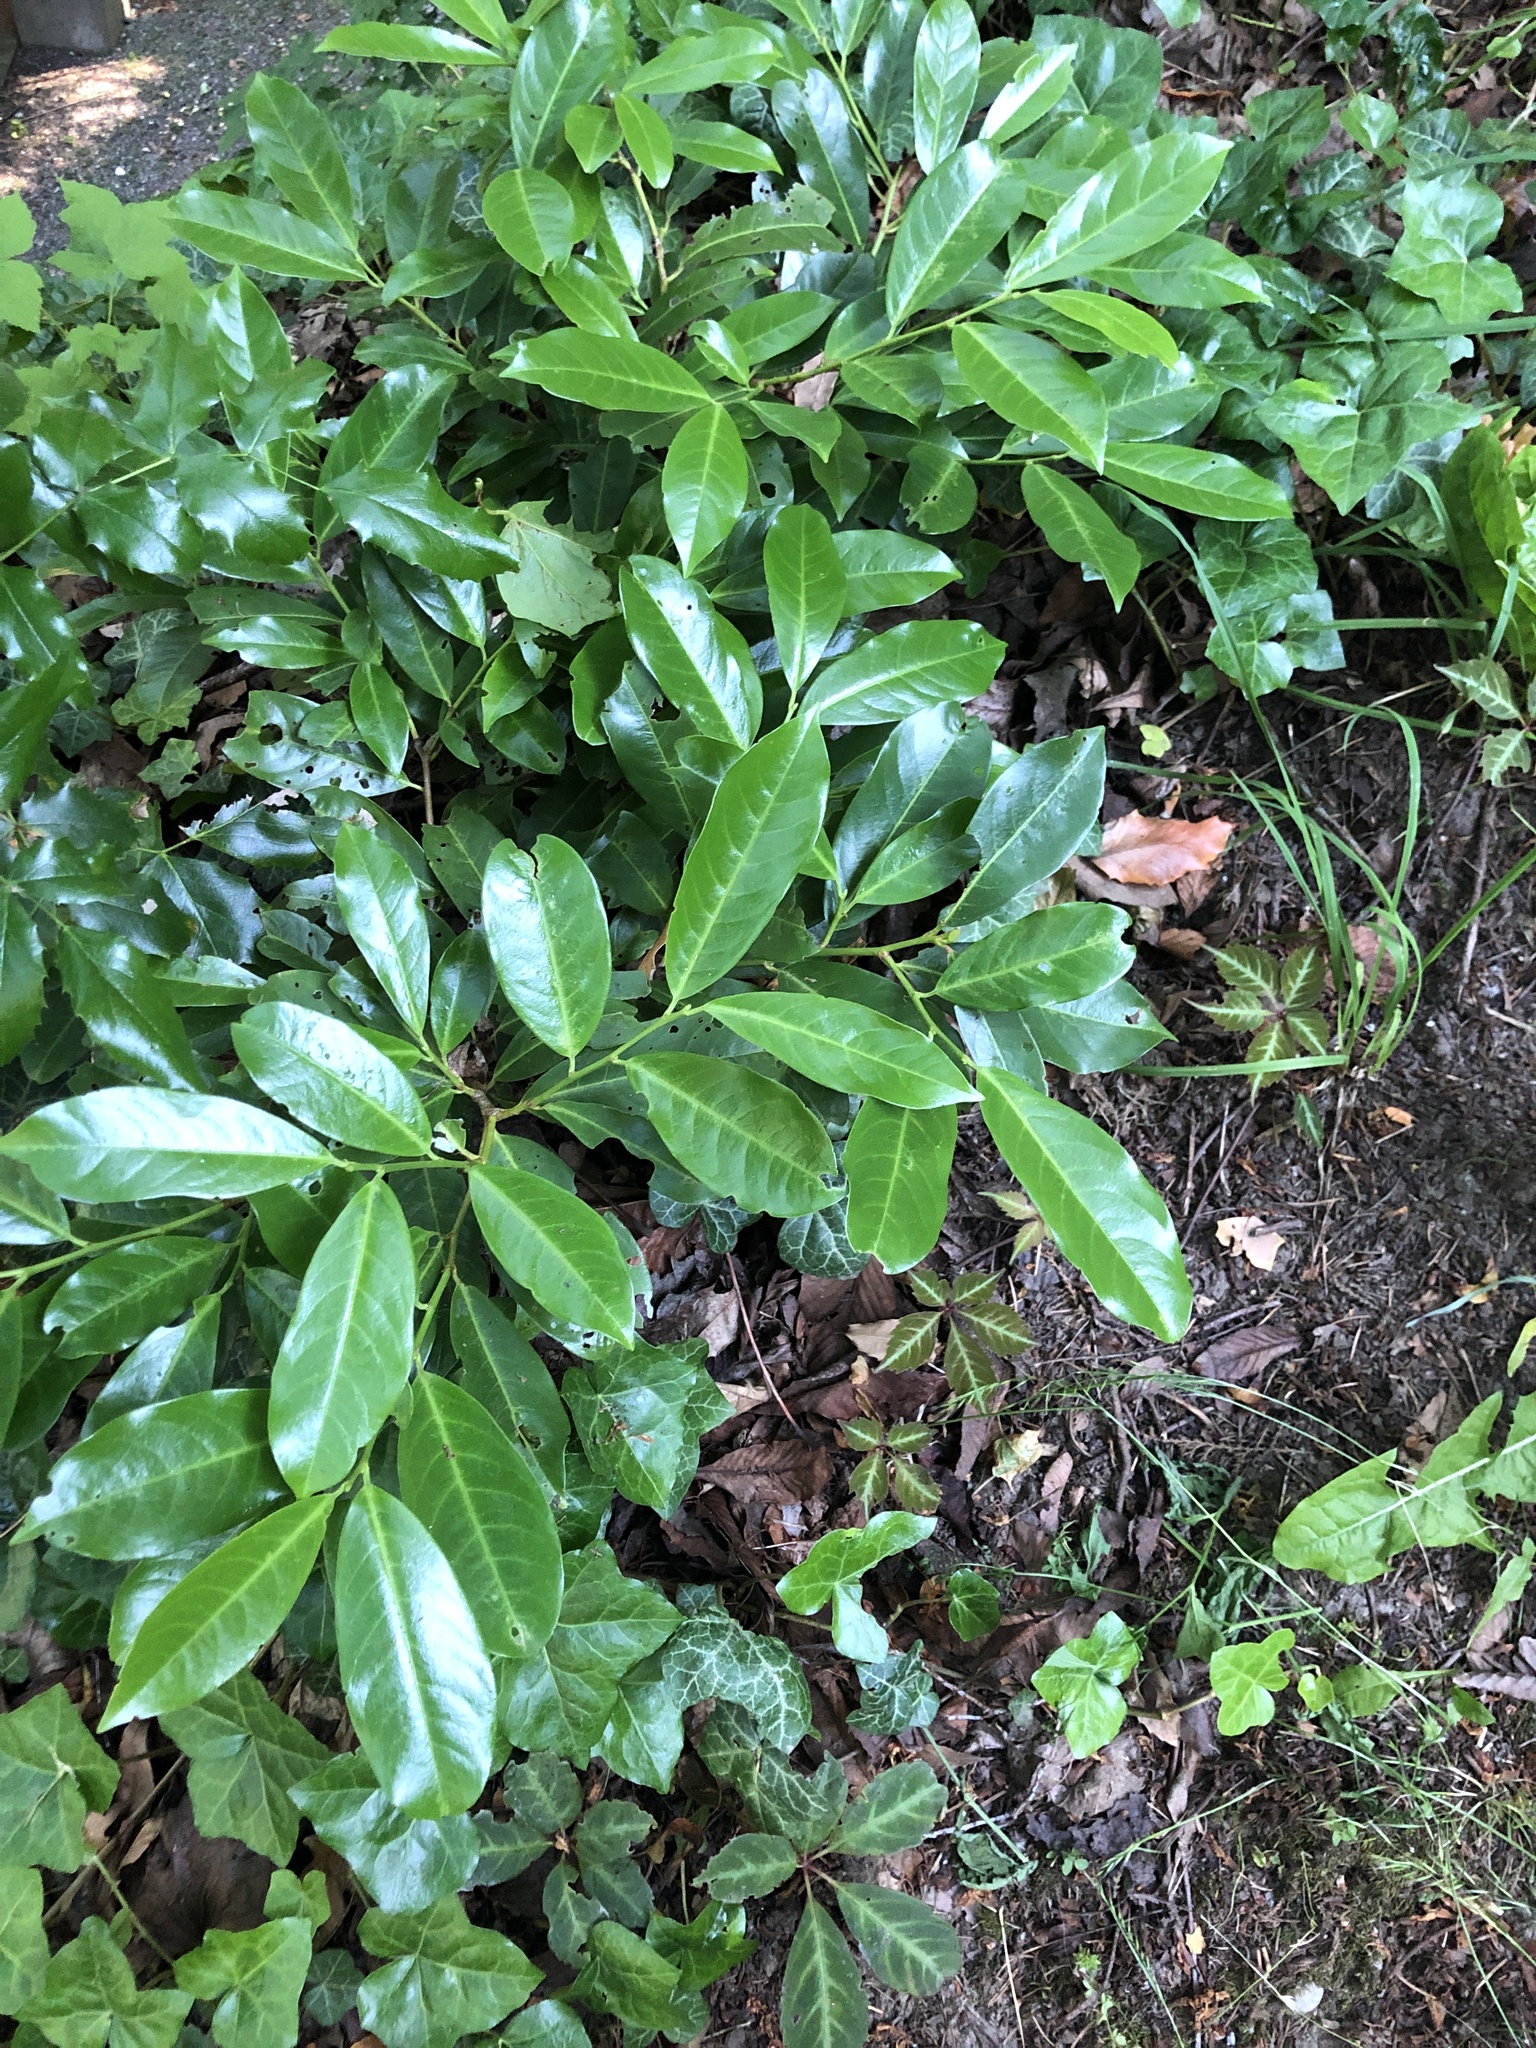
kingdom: Plantae
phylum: Tracheophyta
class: Magnoliopsida
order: Rosales
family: Rosaceae
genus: Prunus
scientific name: Prunus laurocerasus
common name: Cherry laurel
